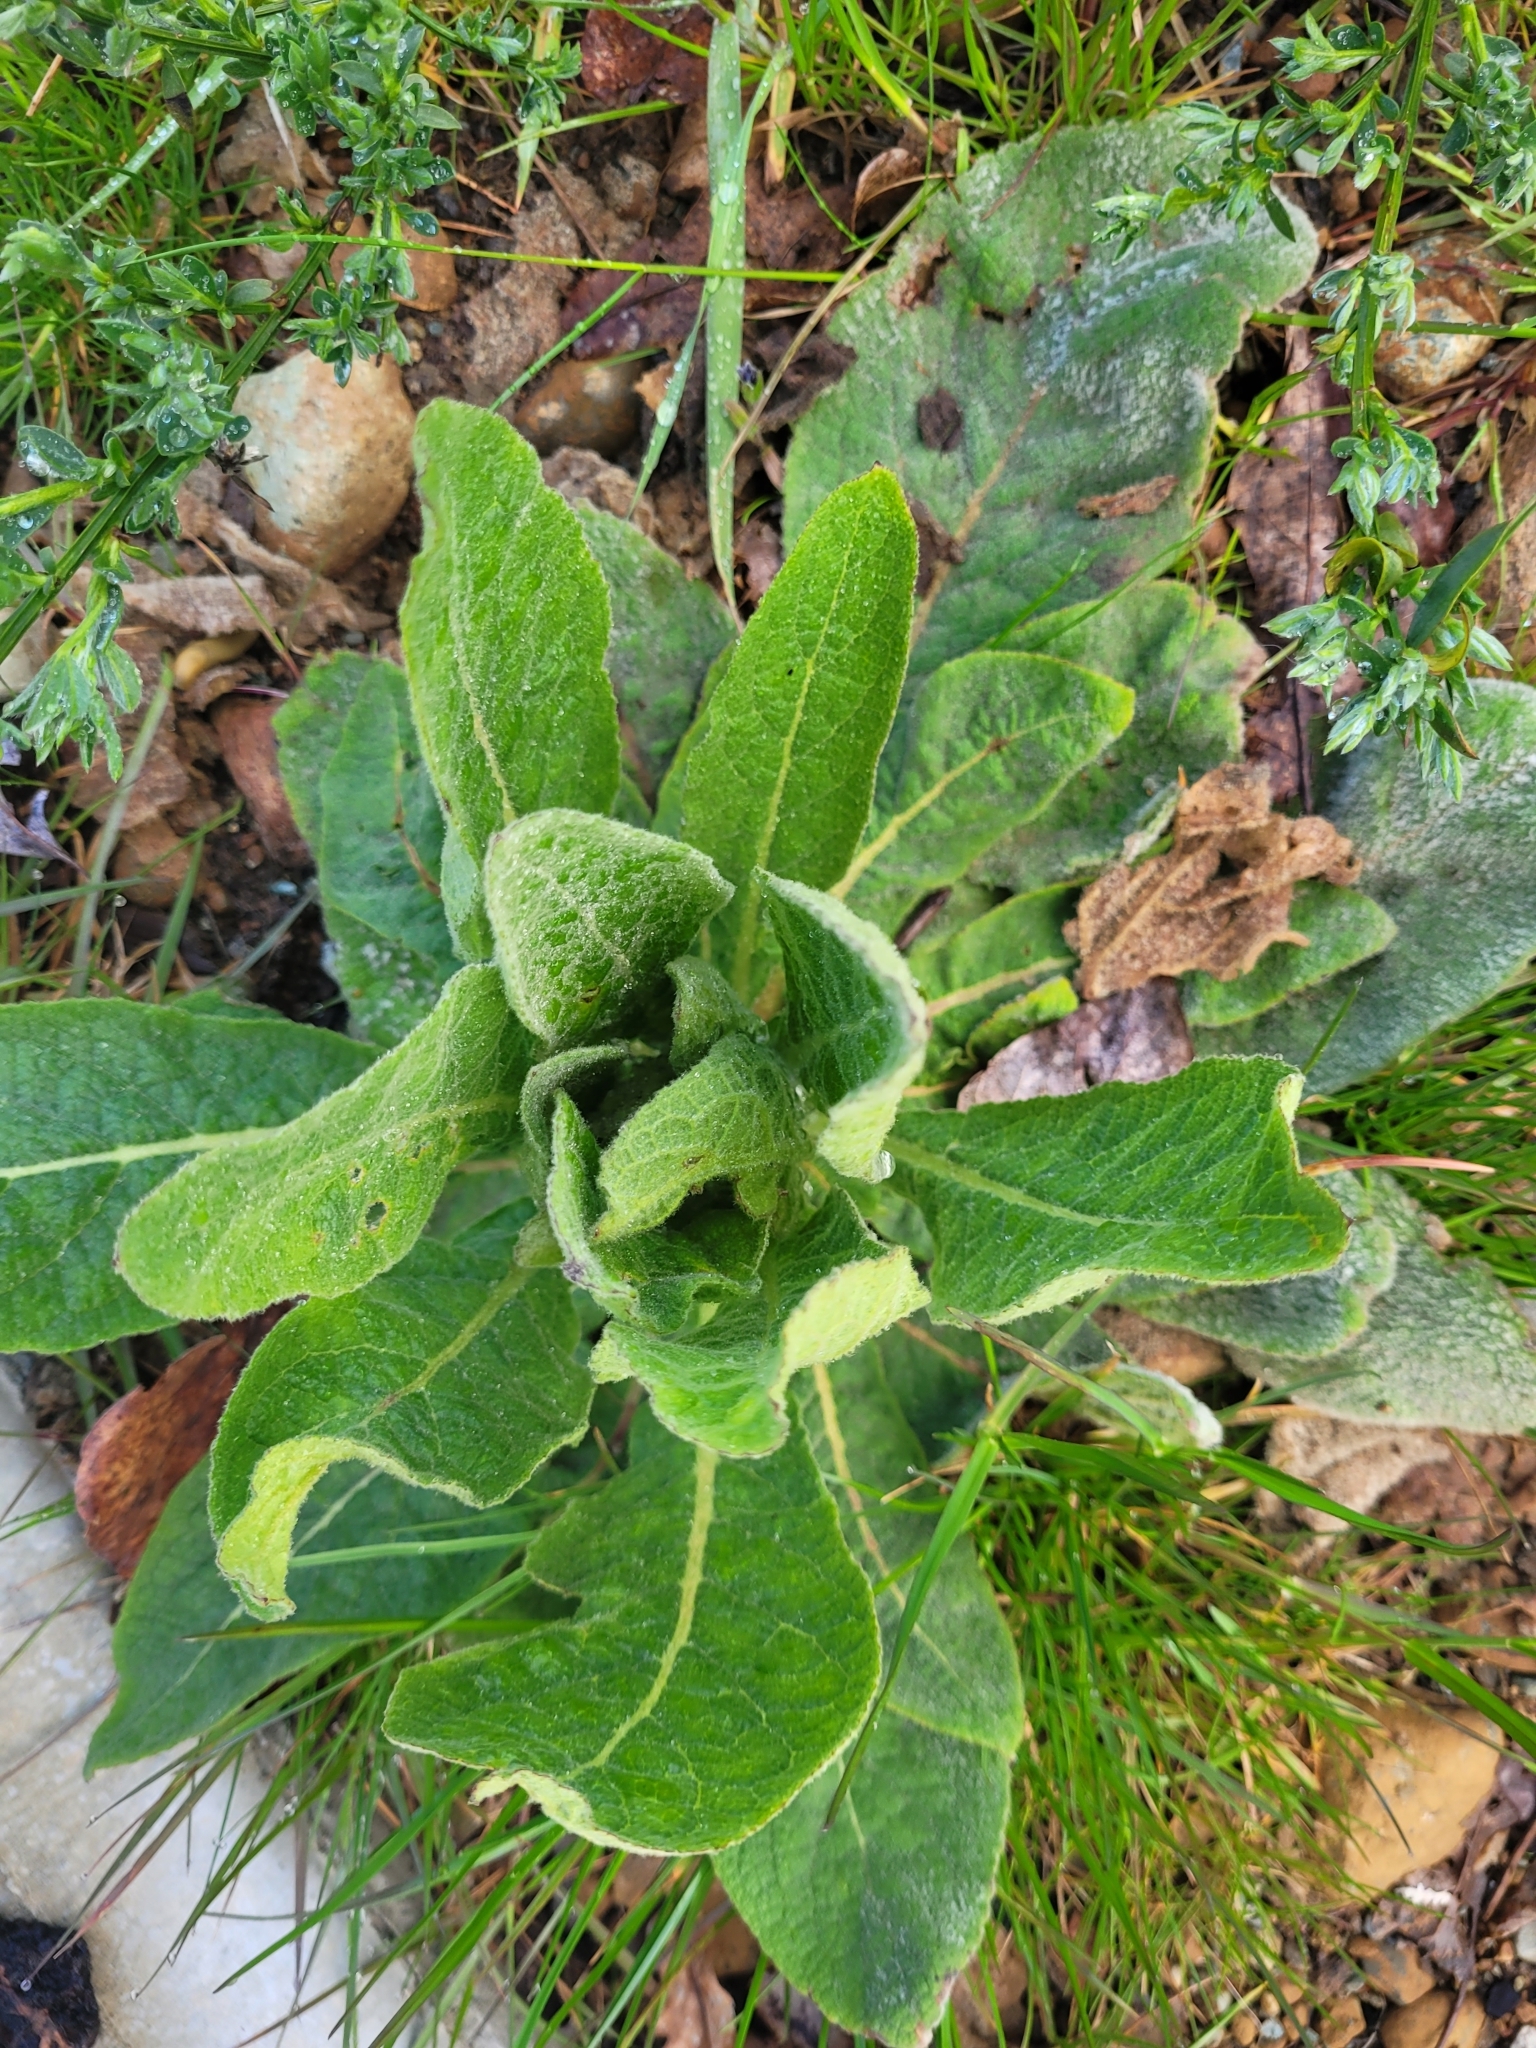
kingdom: Plantae
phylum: Tracheophyta
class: Magnoliopsida
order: Lamiales
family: Scrophulariaceae
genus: Verbascum
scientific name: Verbascum thapsus
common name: Common mullein
